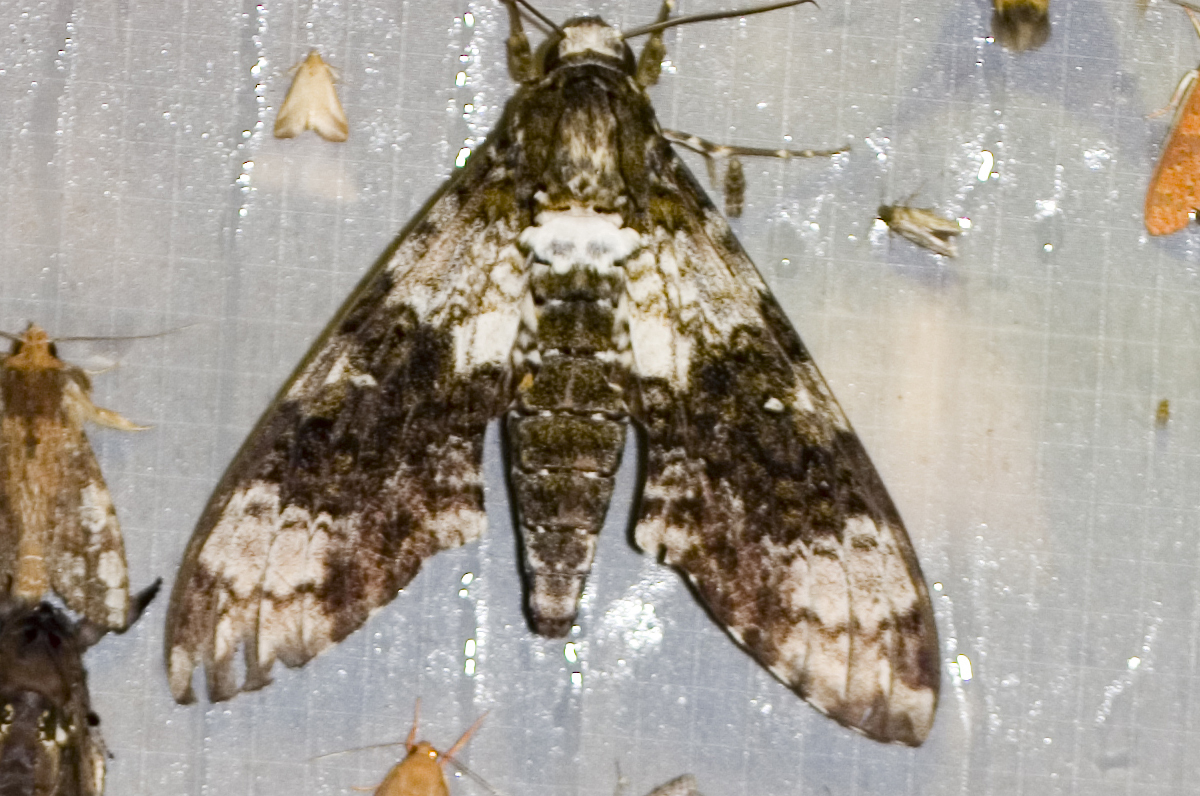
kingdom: Animalia
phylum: Arthropoda
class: Insecta
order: Lepidoptera
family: Sphingidae
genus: Manduca
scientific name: Manduca albiplaga
